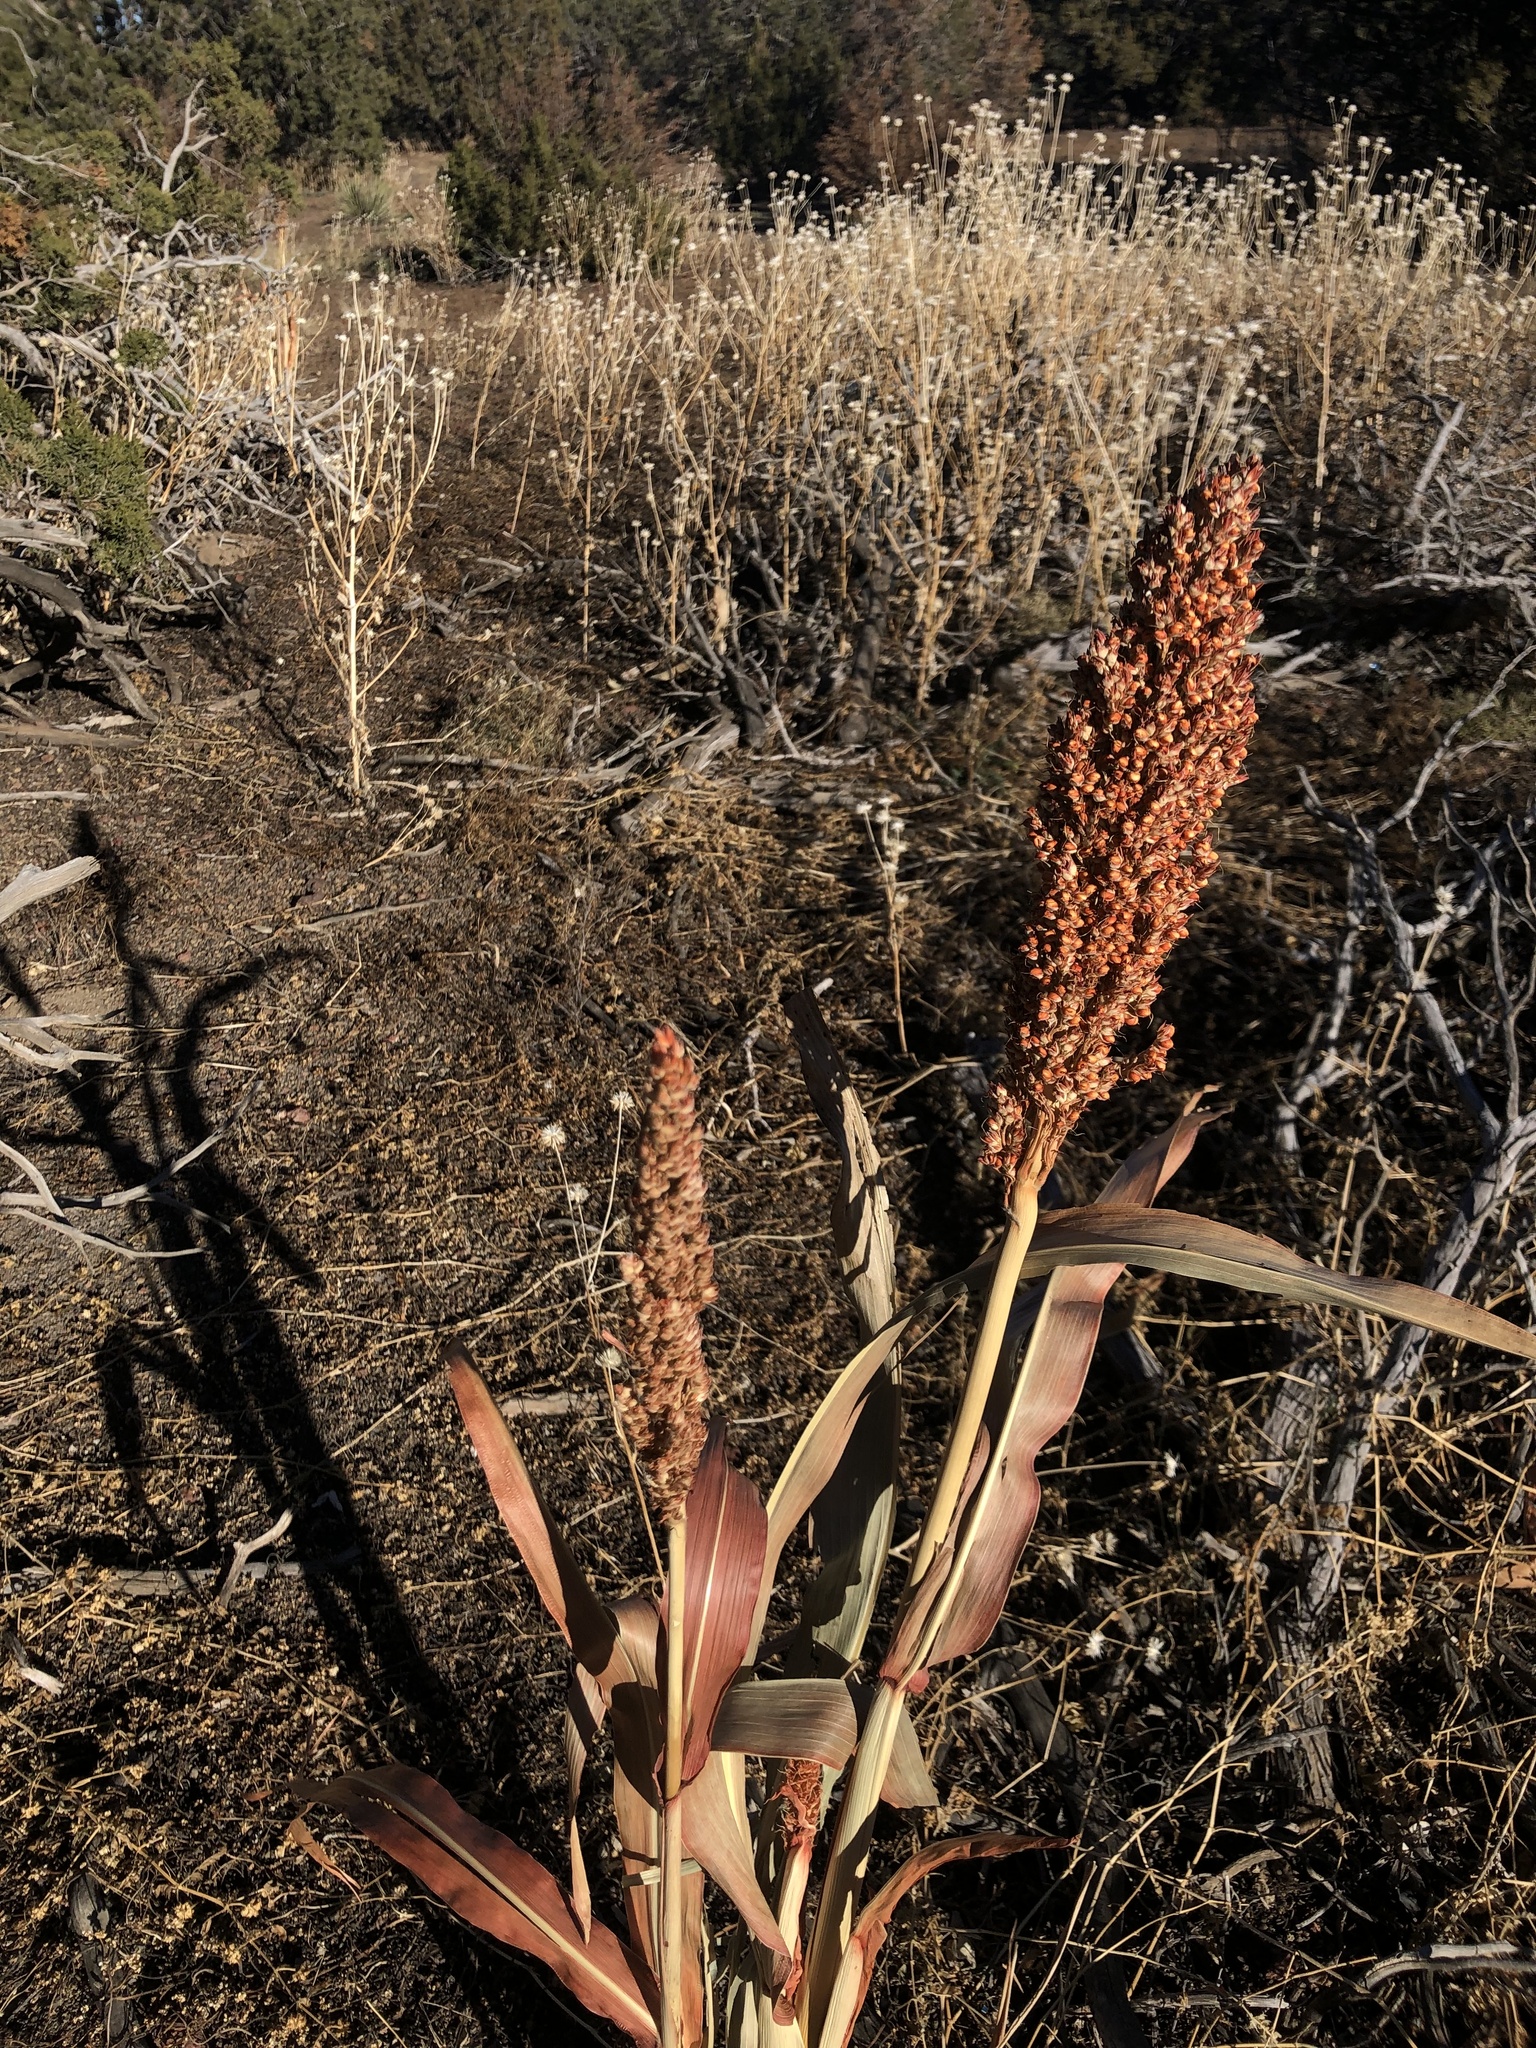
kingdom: Plantae
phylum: Tracheophyta
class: Liliopsida
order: Poales
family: Poaceae
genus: Sorghum
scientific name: Sorghum bicolor
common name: Sorghum
